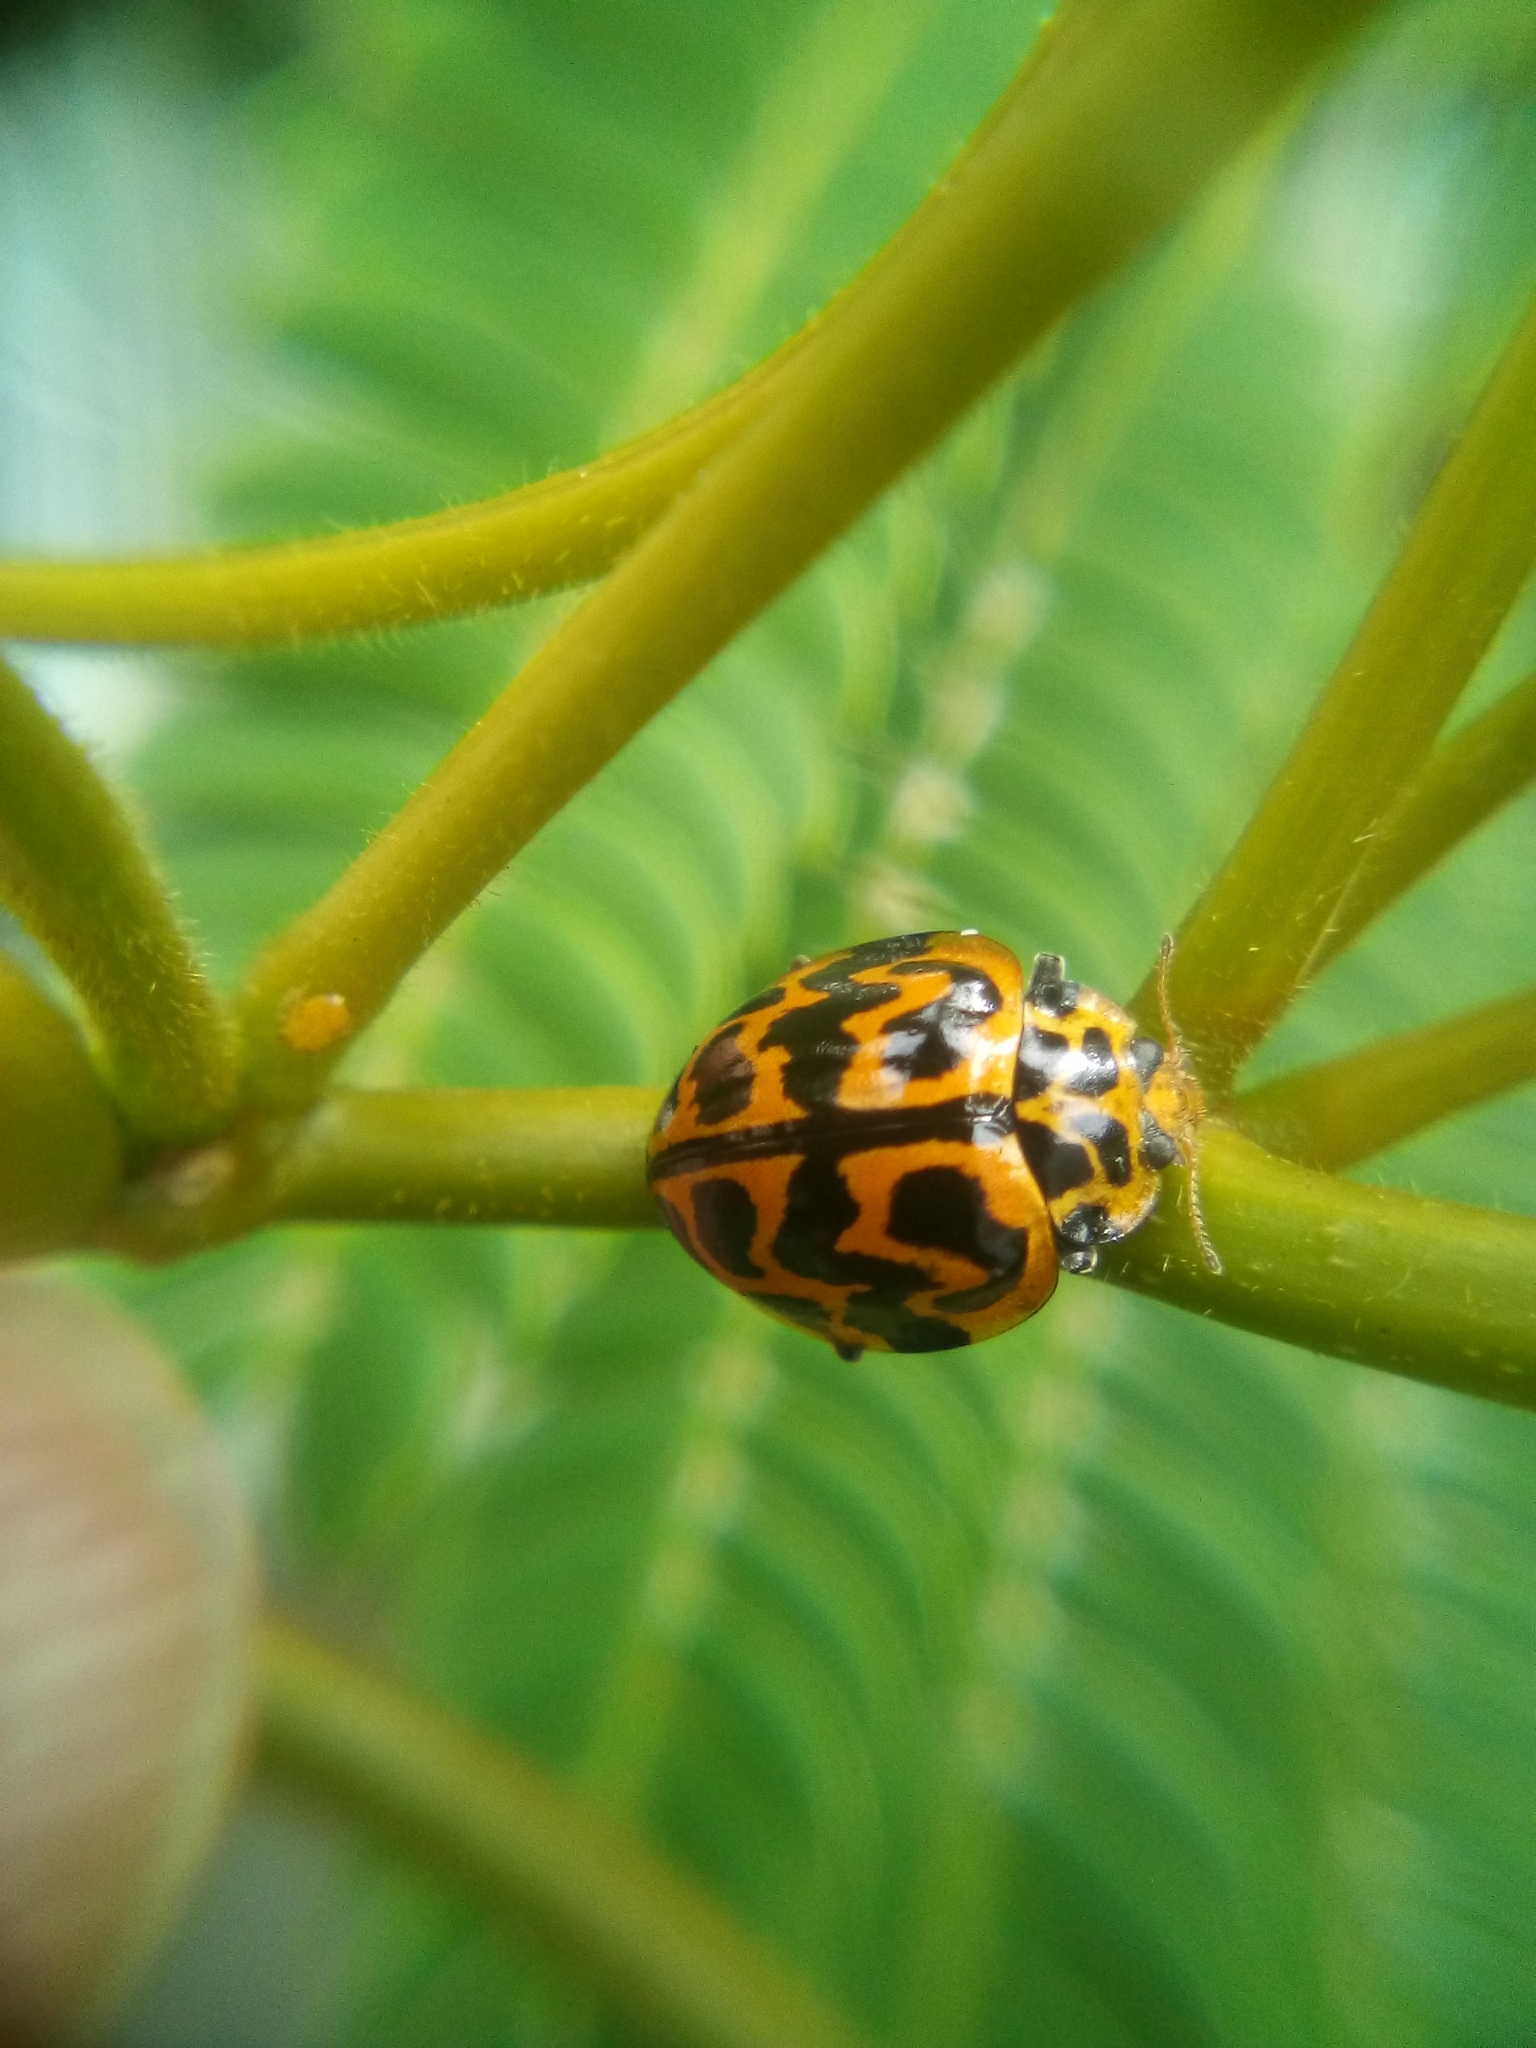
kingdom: Animalia
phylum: Arthropoda
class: Insecta
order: Coleoptera
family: Coccinellidae
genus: Cleobora
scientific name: Cleobora
